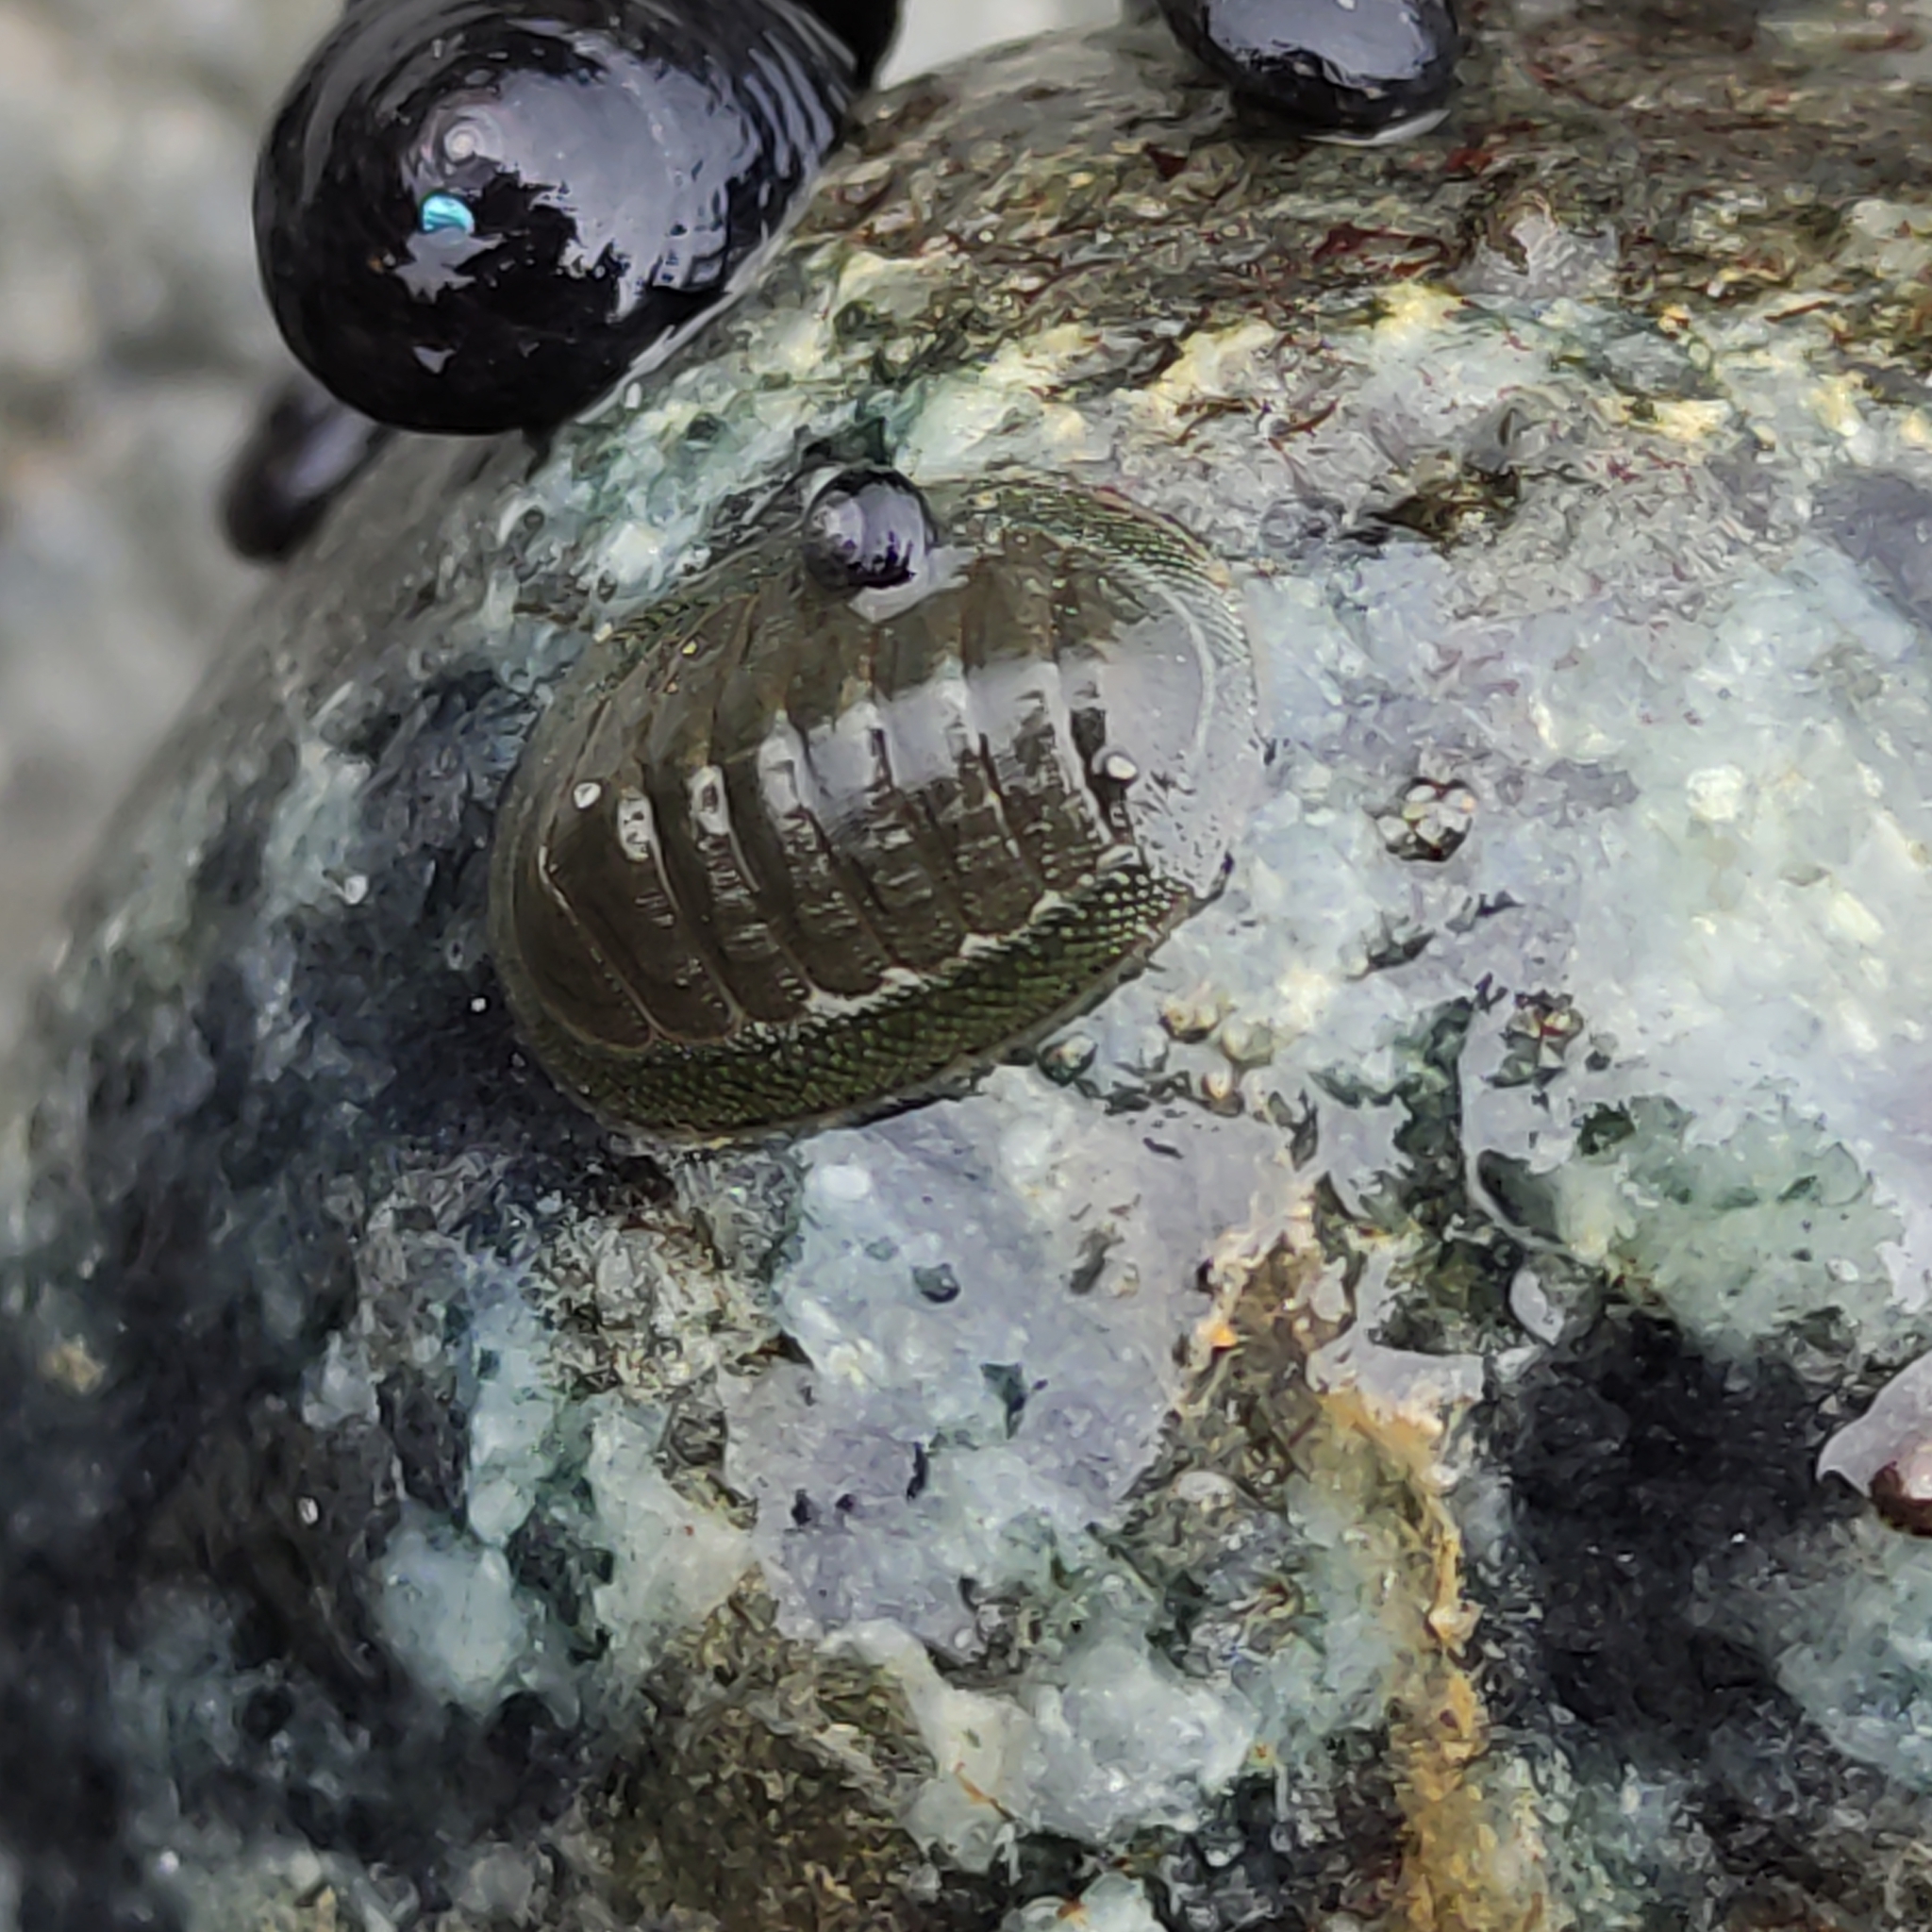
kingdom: Animalia
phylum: Mollusca
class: Polyplacophora
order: Chitonida
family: Chitonidae
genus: Chiton
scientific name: Chiton glaucus
